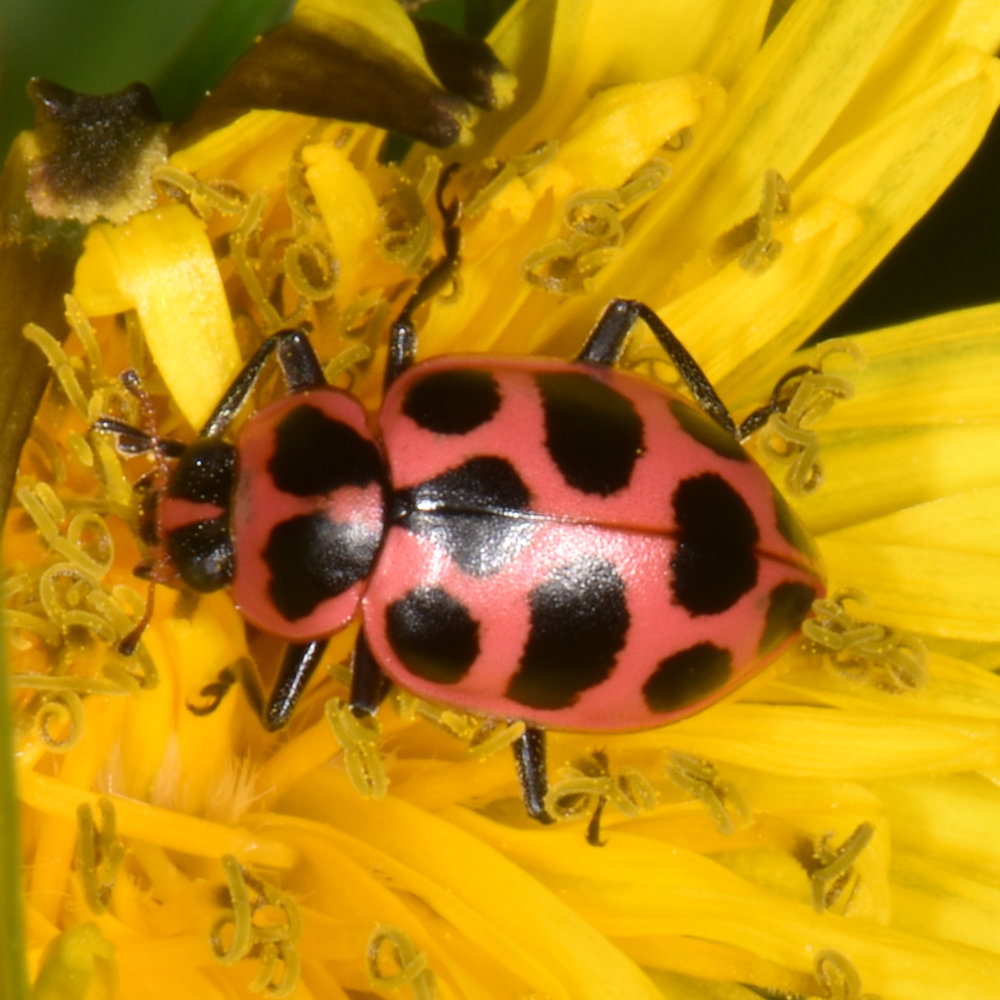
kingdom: Animalia
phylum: Arthropoda
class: Insecta
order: Coleoptera
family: Coccinellidae
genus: Coleomegilla
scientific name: Coleomegilla maculata
